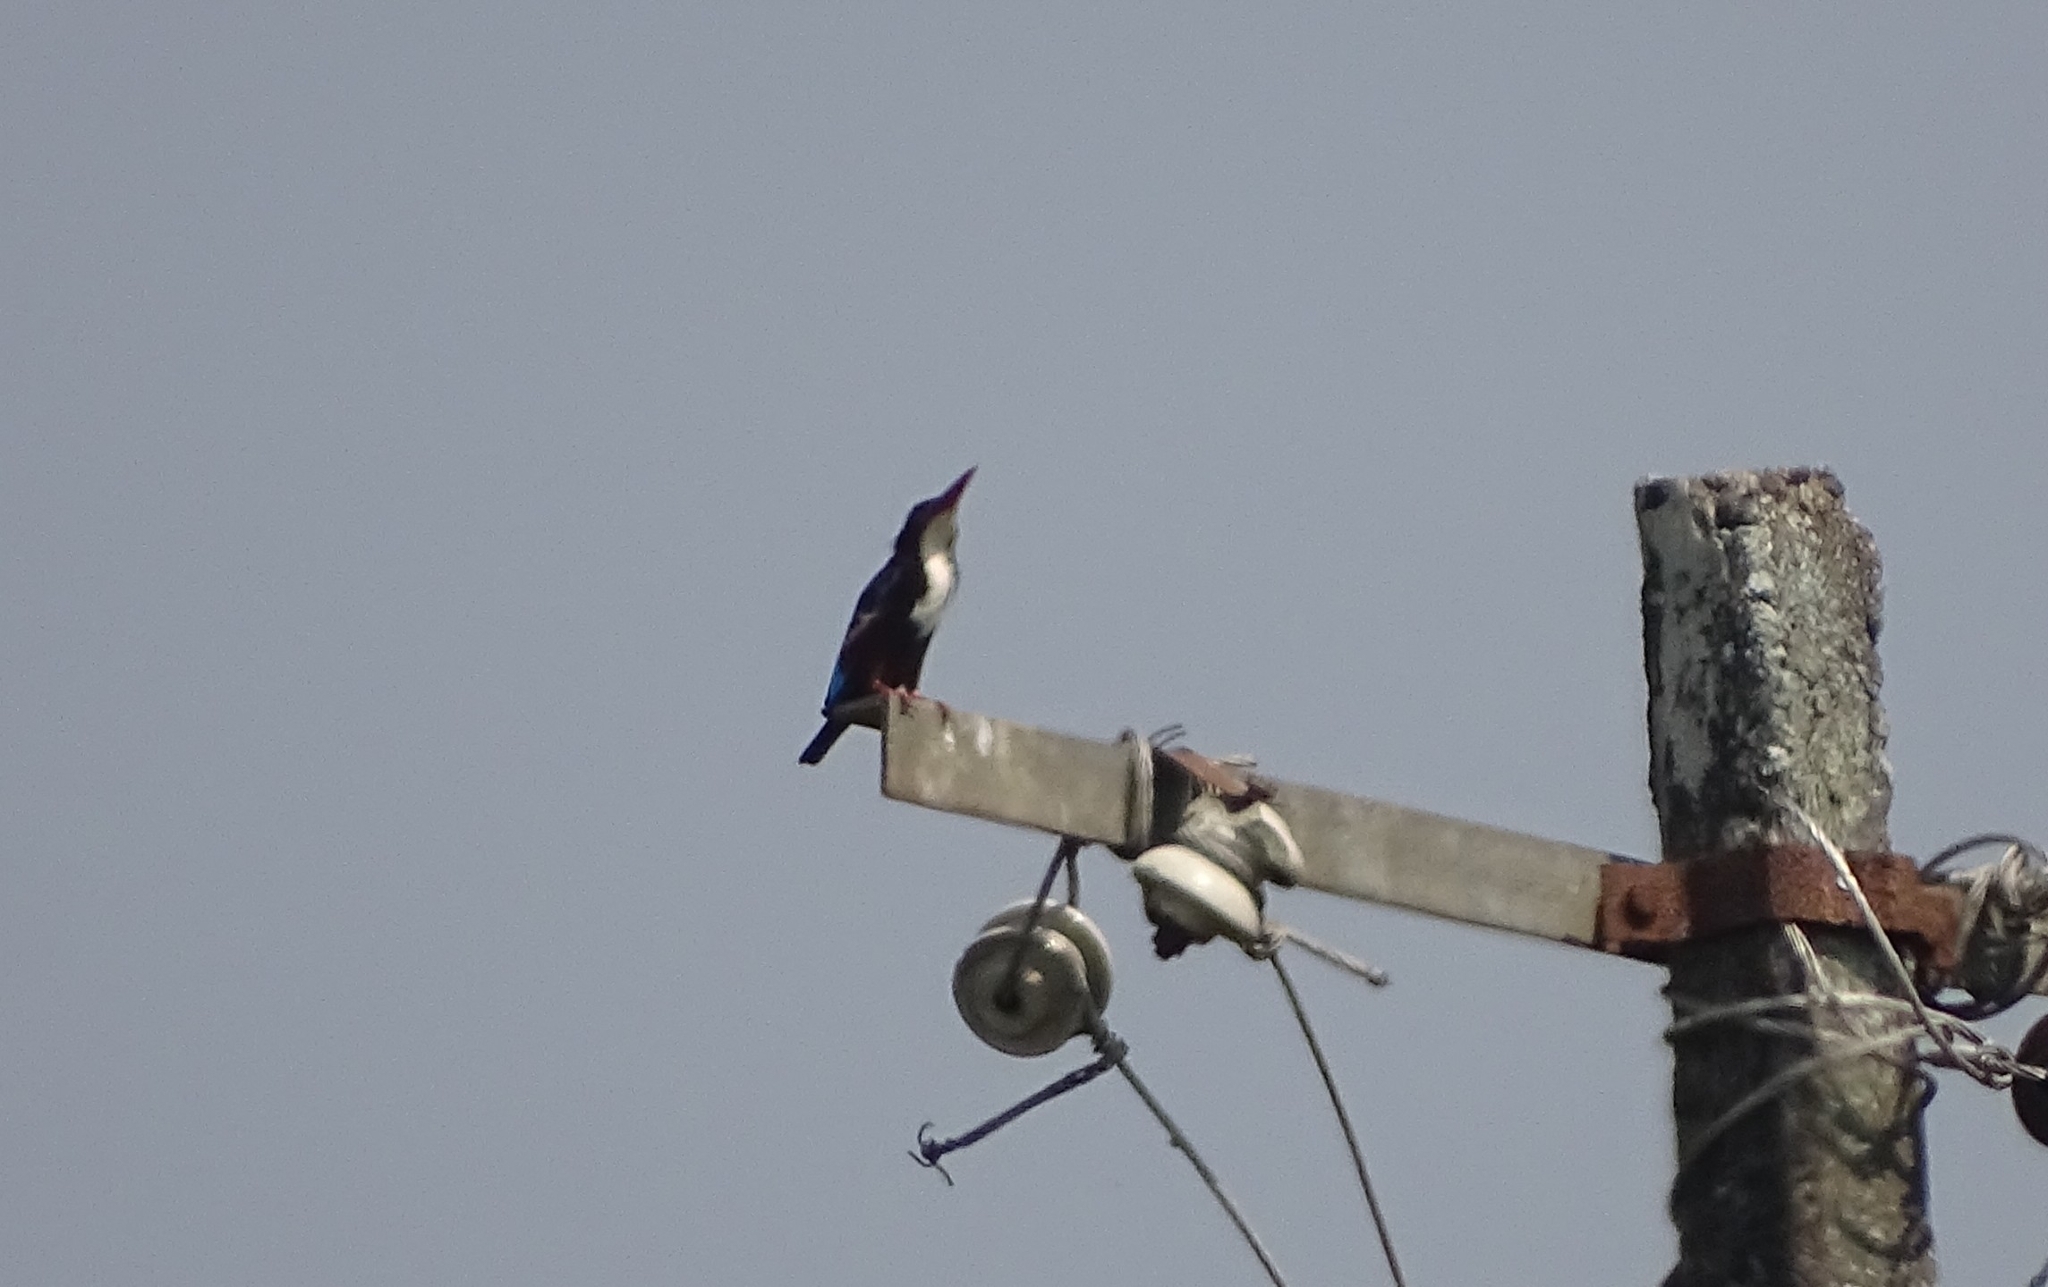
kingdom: Animalia
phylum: Chordata
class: Aves
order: Coraciiformes
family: Alcedinidae
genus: Halcyon
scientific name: Halcyon smyrnensis
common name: White-throated kingfisher
